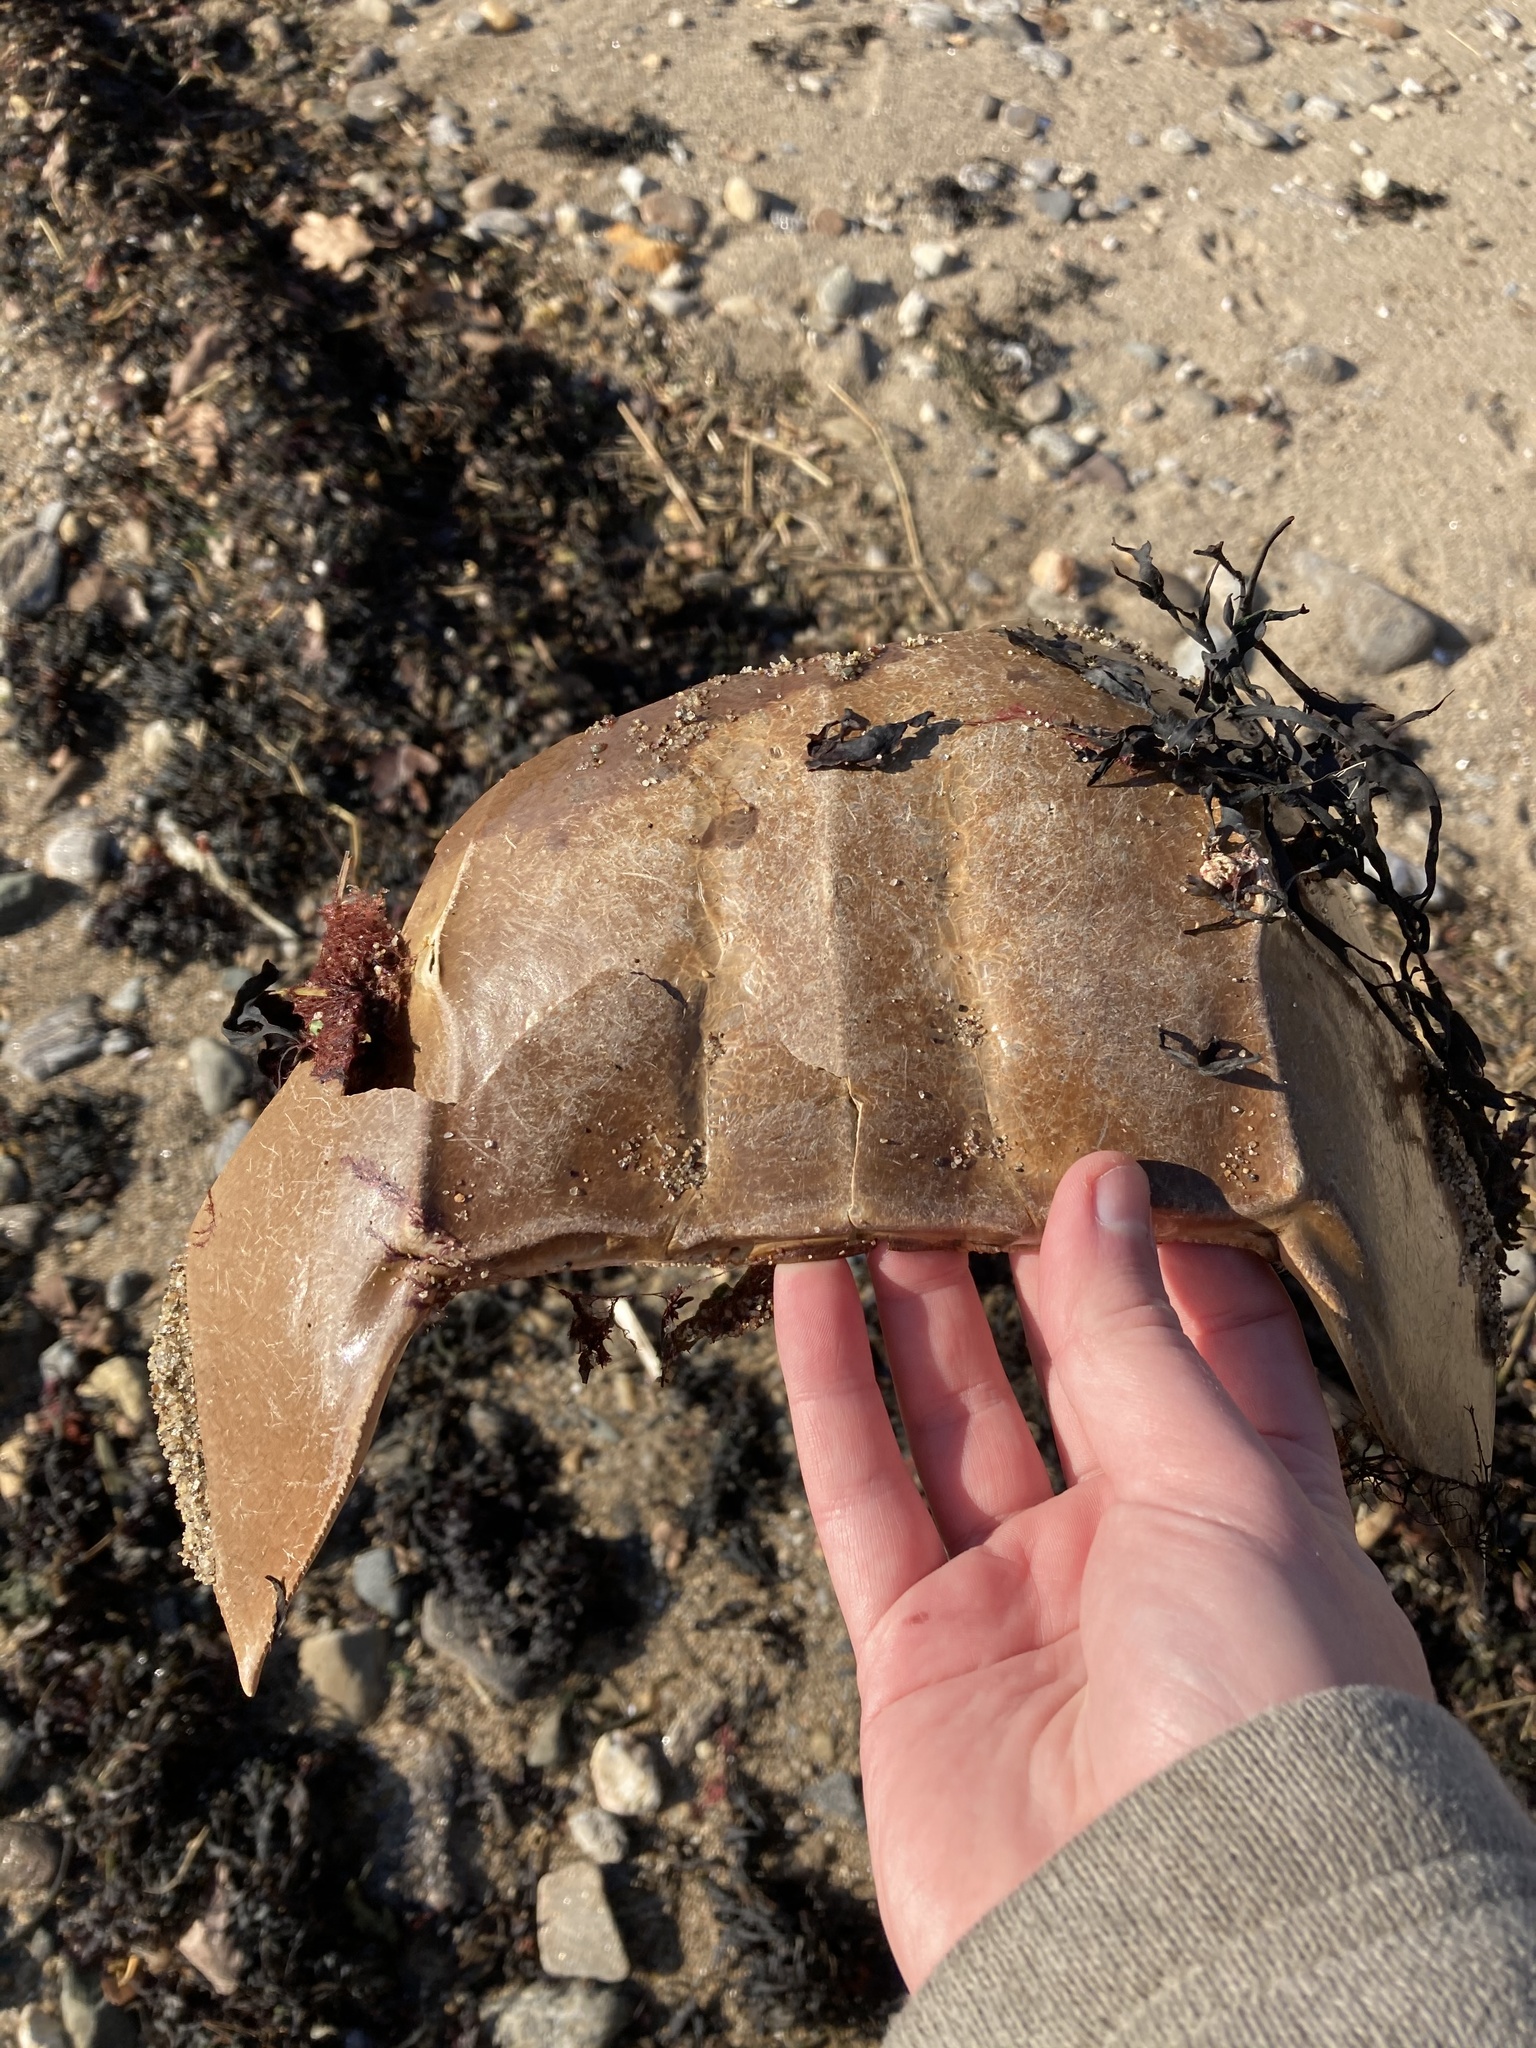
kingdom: Animalia
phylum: Arthropoda
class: Merostomata
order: Xiphosurida
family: Limulidae
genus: Limulus
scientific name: Limulus polyphemus
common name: Horseshoe crab
